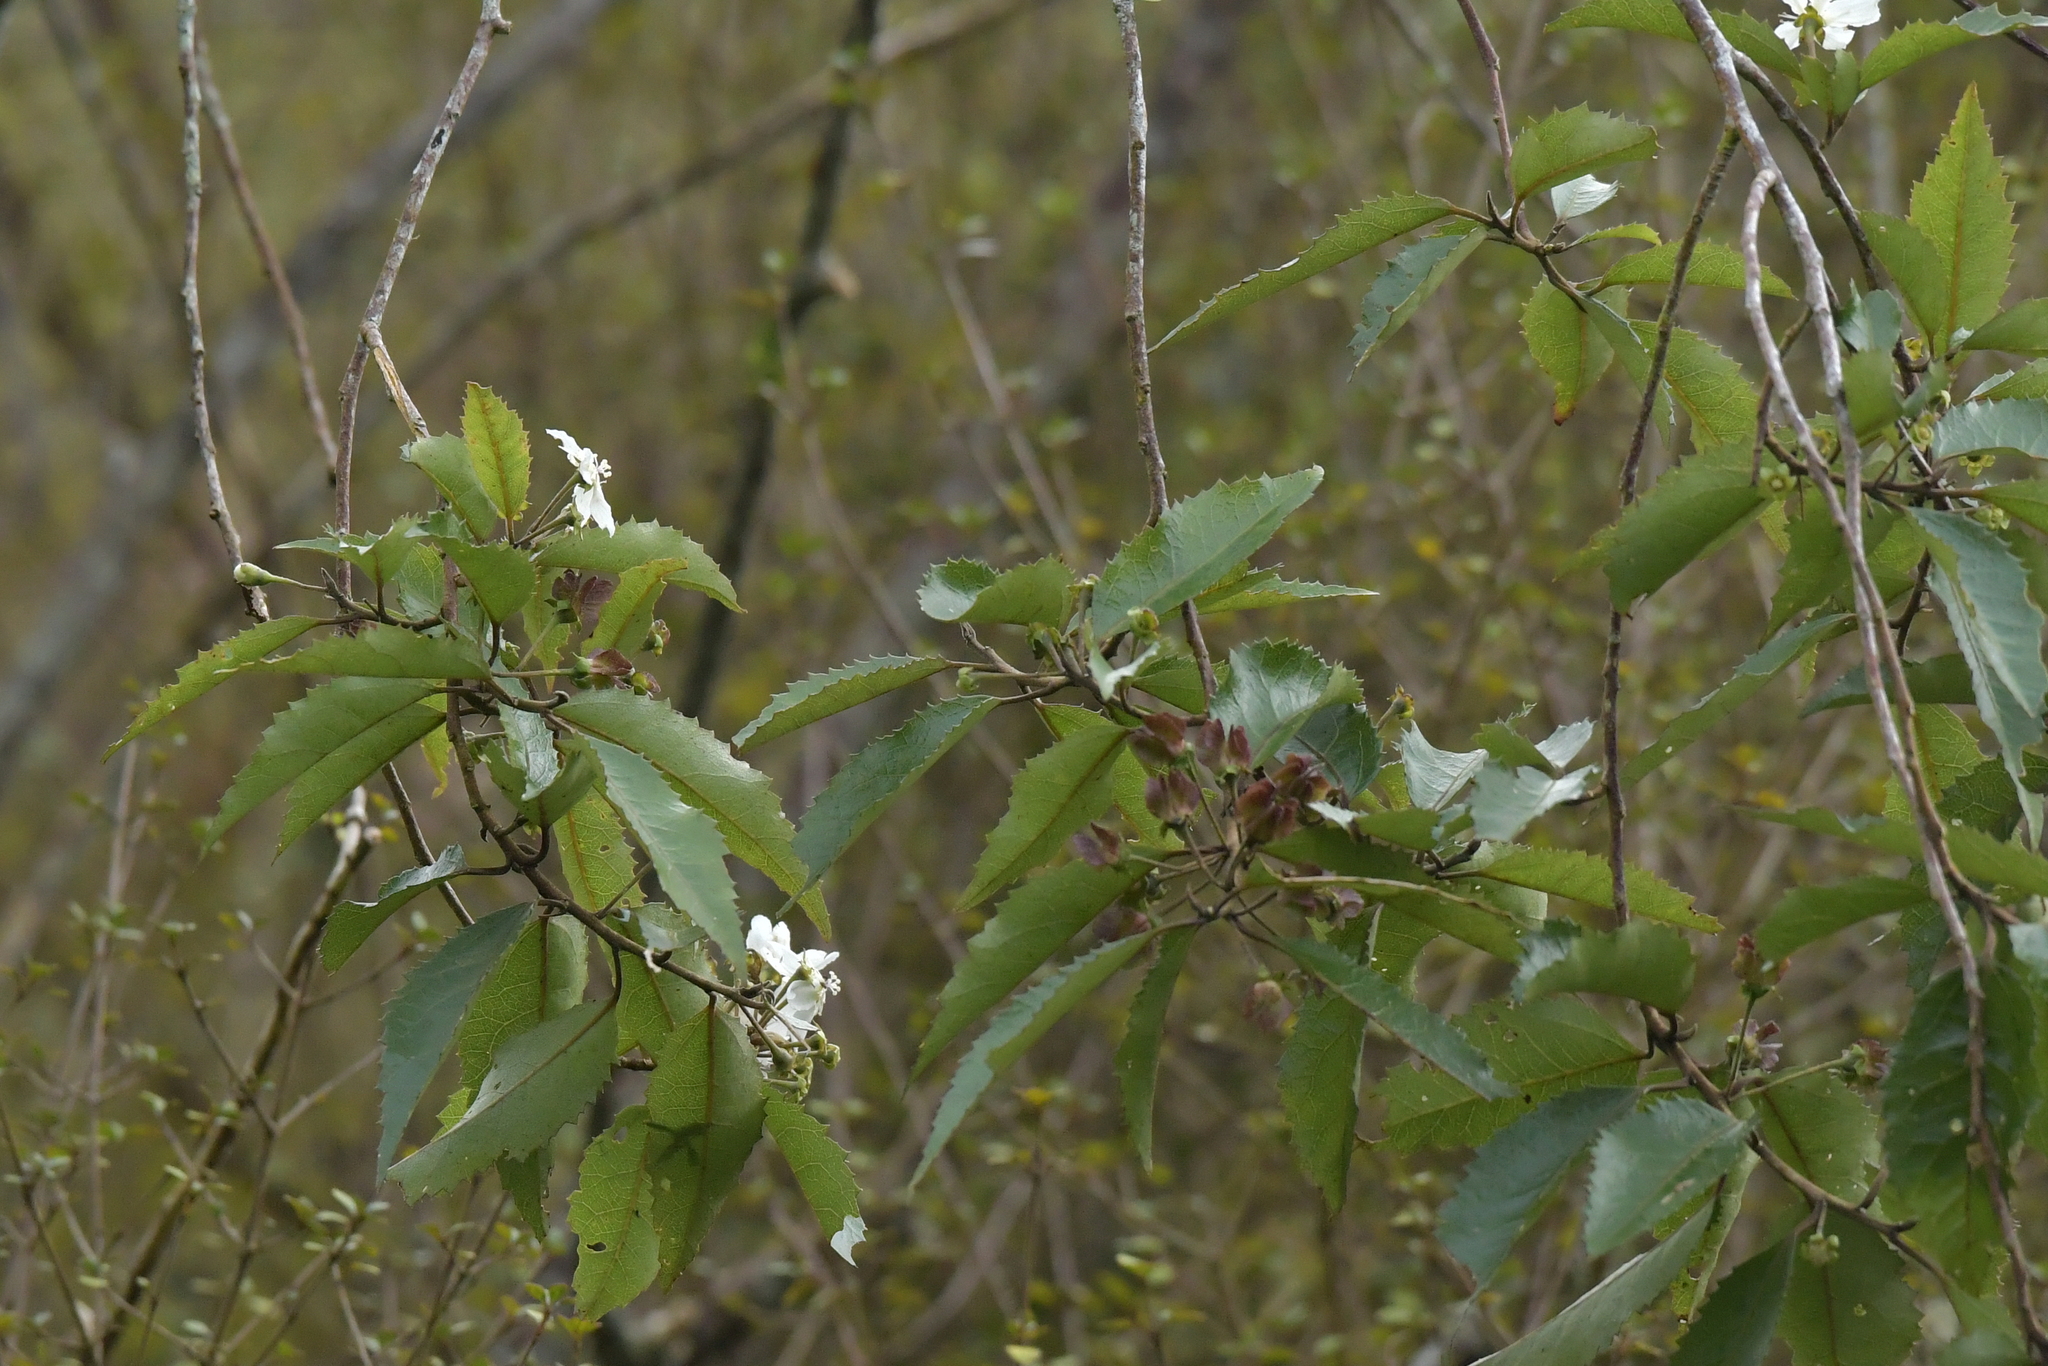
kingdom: Plantae
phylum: Tracheophyta
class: Magnoliopsida
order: Malvales
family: Malvaceae
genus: Hoheria
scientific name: Hoheria sexstylosa
